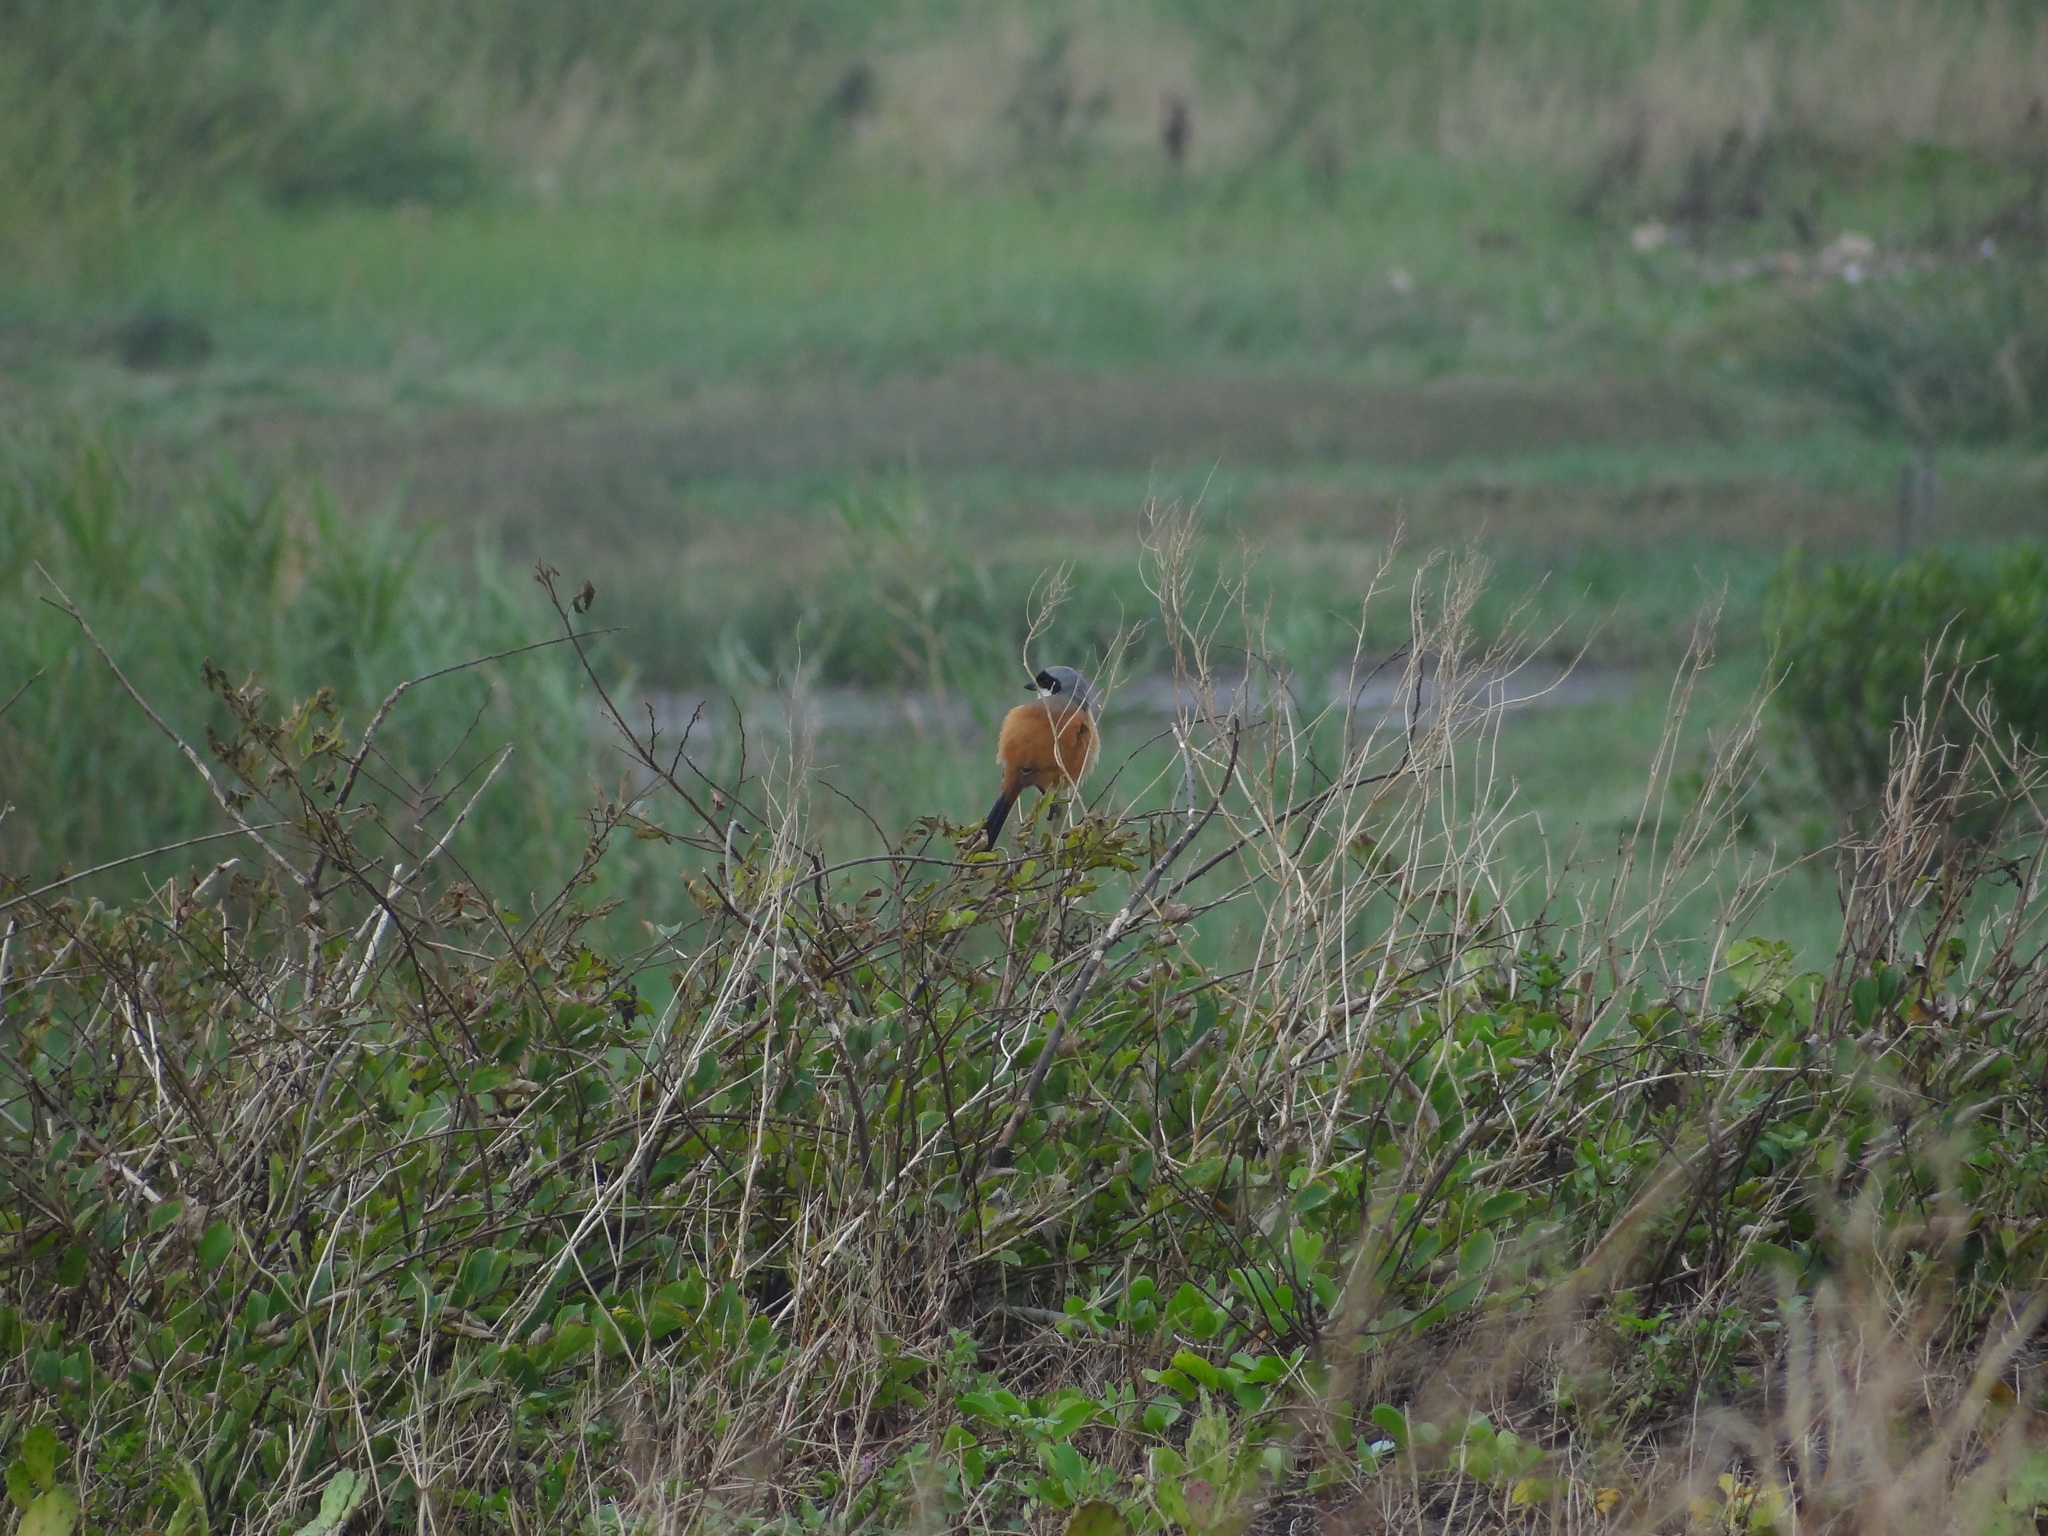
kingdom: Animalia
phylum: Chordata
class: Aves
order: Passeriformes
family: Laniidae
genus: Lanius
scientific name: Lanius schach
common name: Long-tailed shrike
